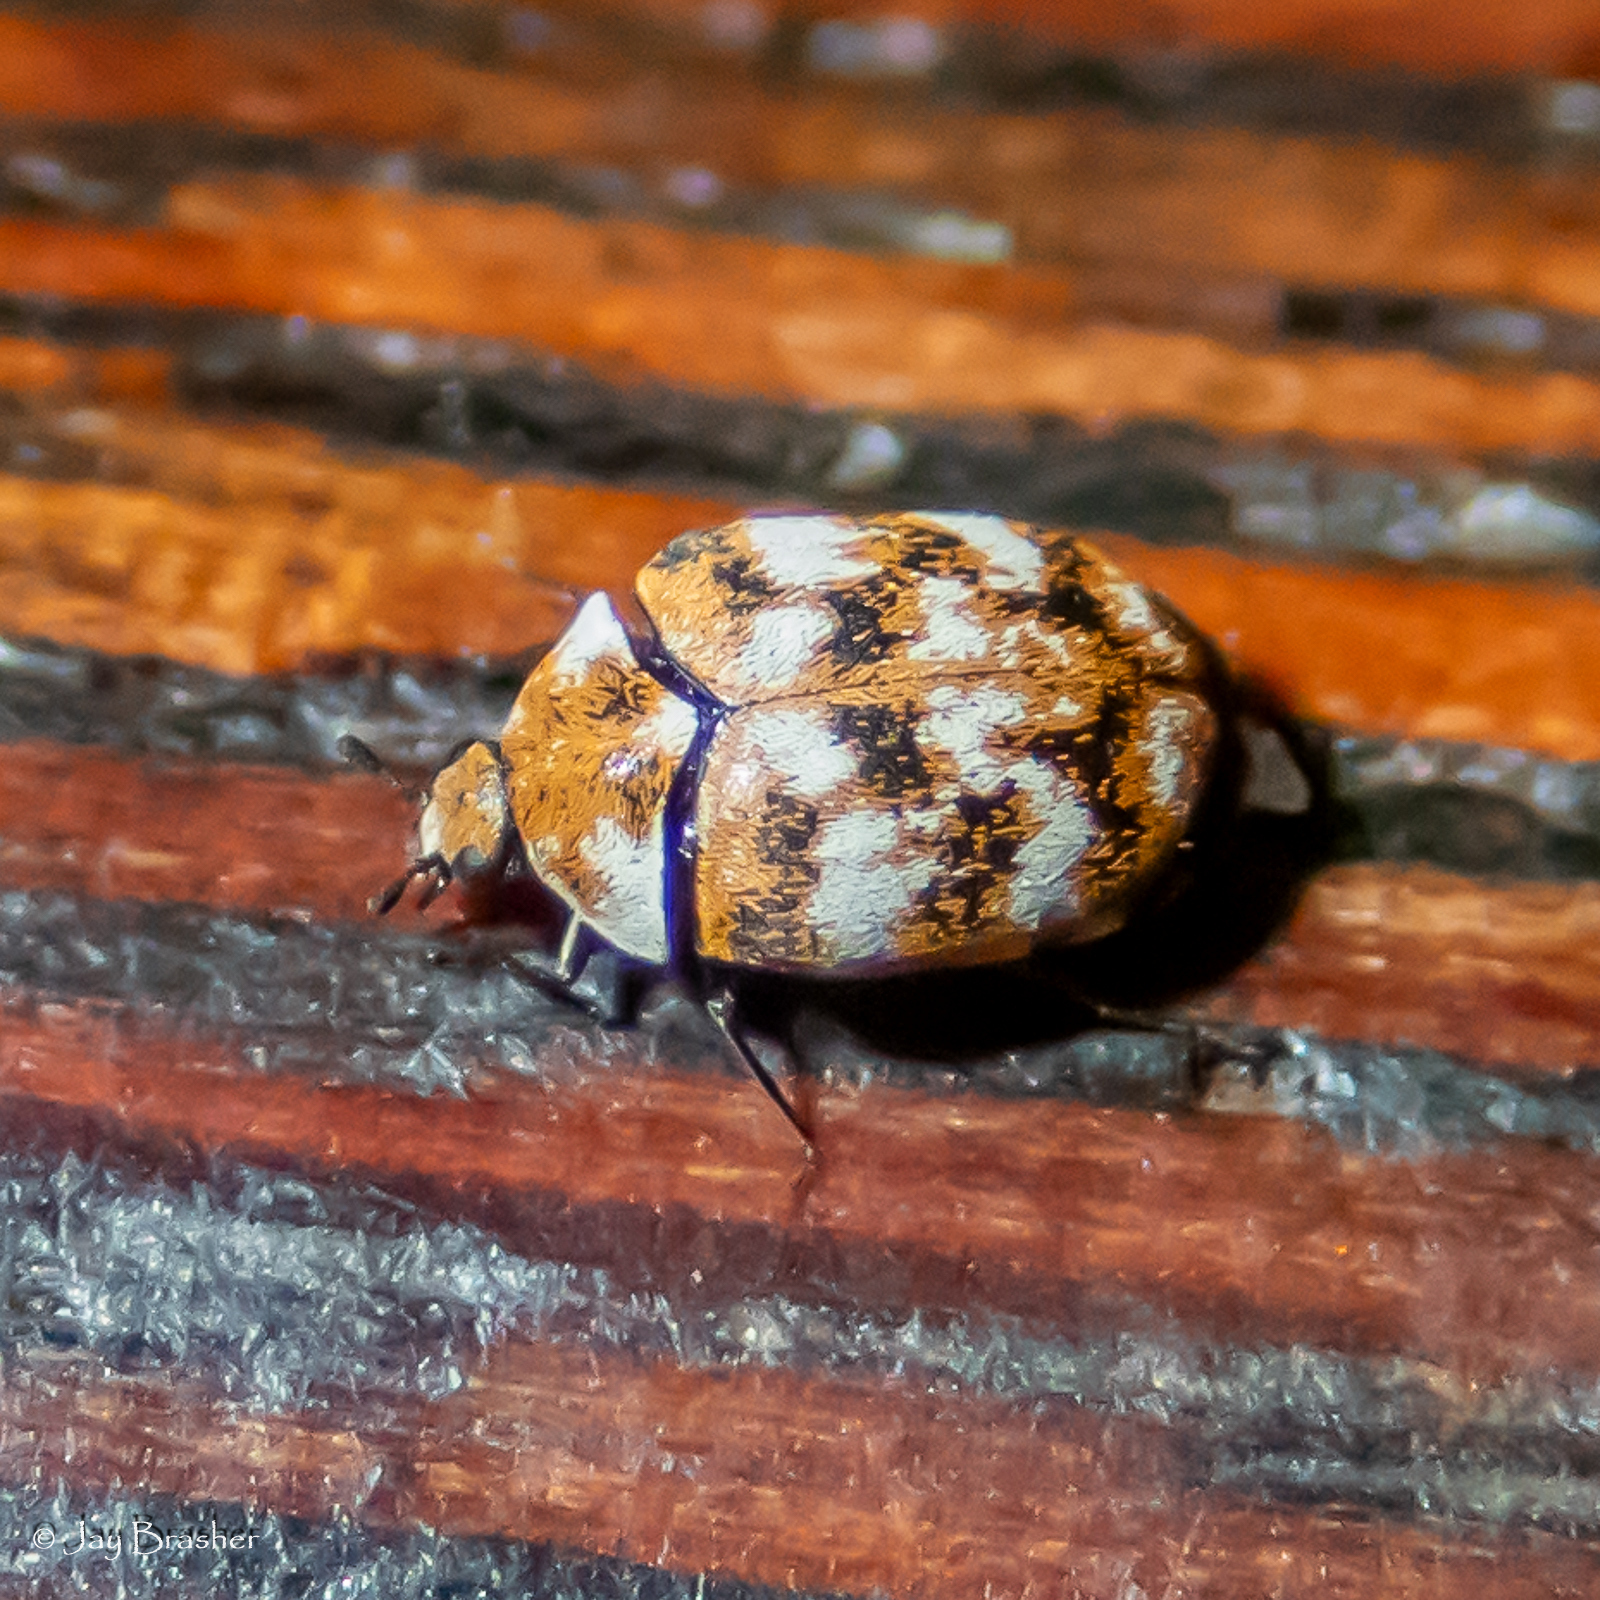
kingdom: Animalia
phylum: Arthropoda
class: Insecta
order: Coleoptera
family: Dermestidae
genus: Anthrenus
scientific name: Anthrenus verbasci
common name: Varied carpet beetle
